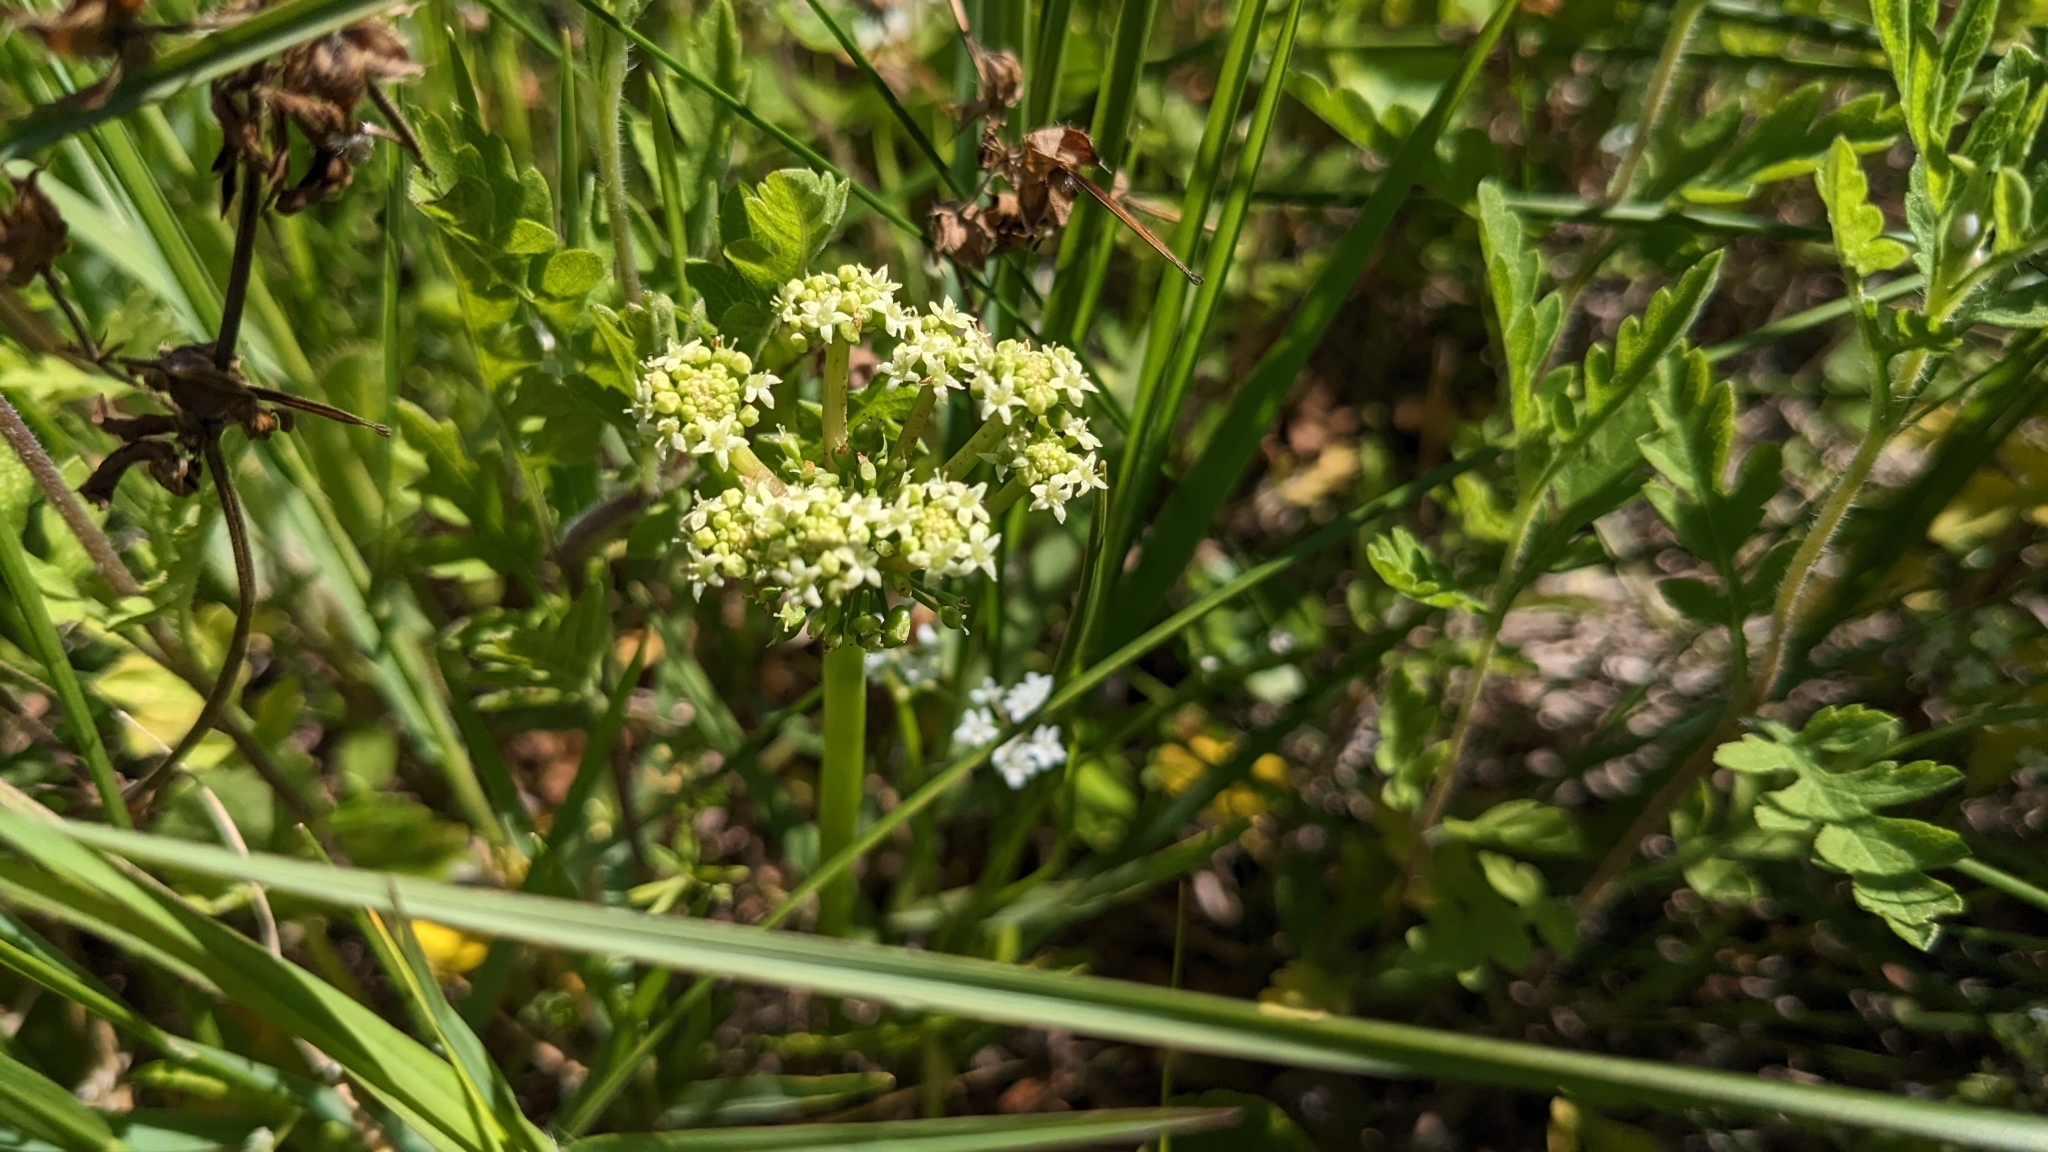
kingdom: Plantae
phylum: Tracheophyta
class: Magnoliopsida
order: Apiales
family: Araliaceae
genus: Hydrocotyle
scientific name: Hydrocotyle bonariensis
